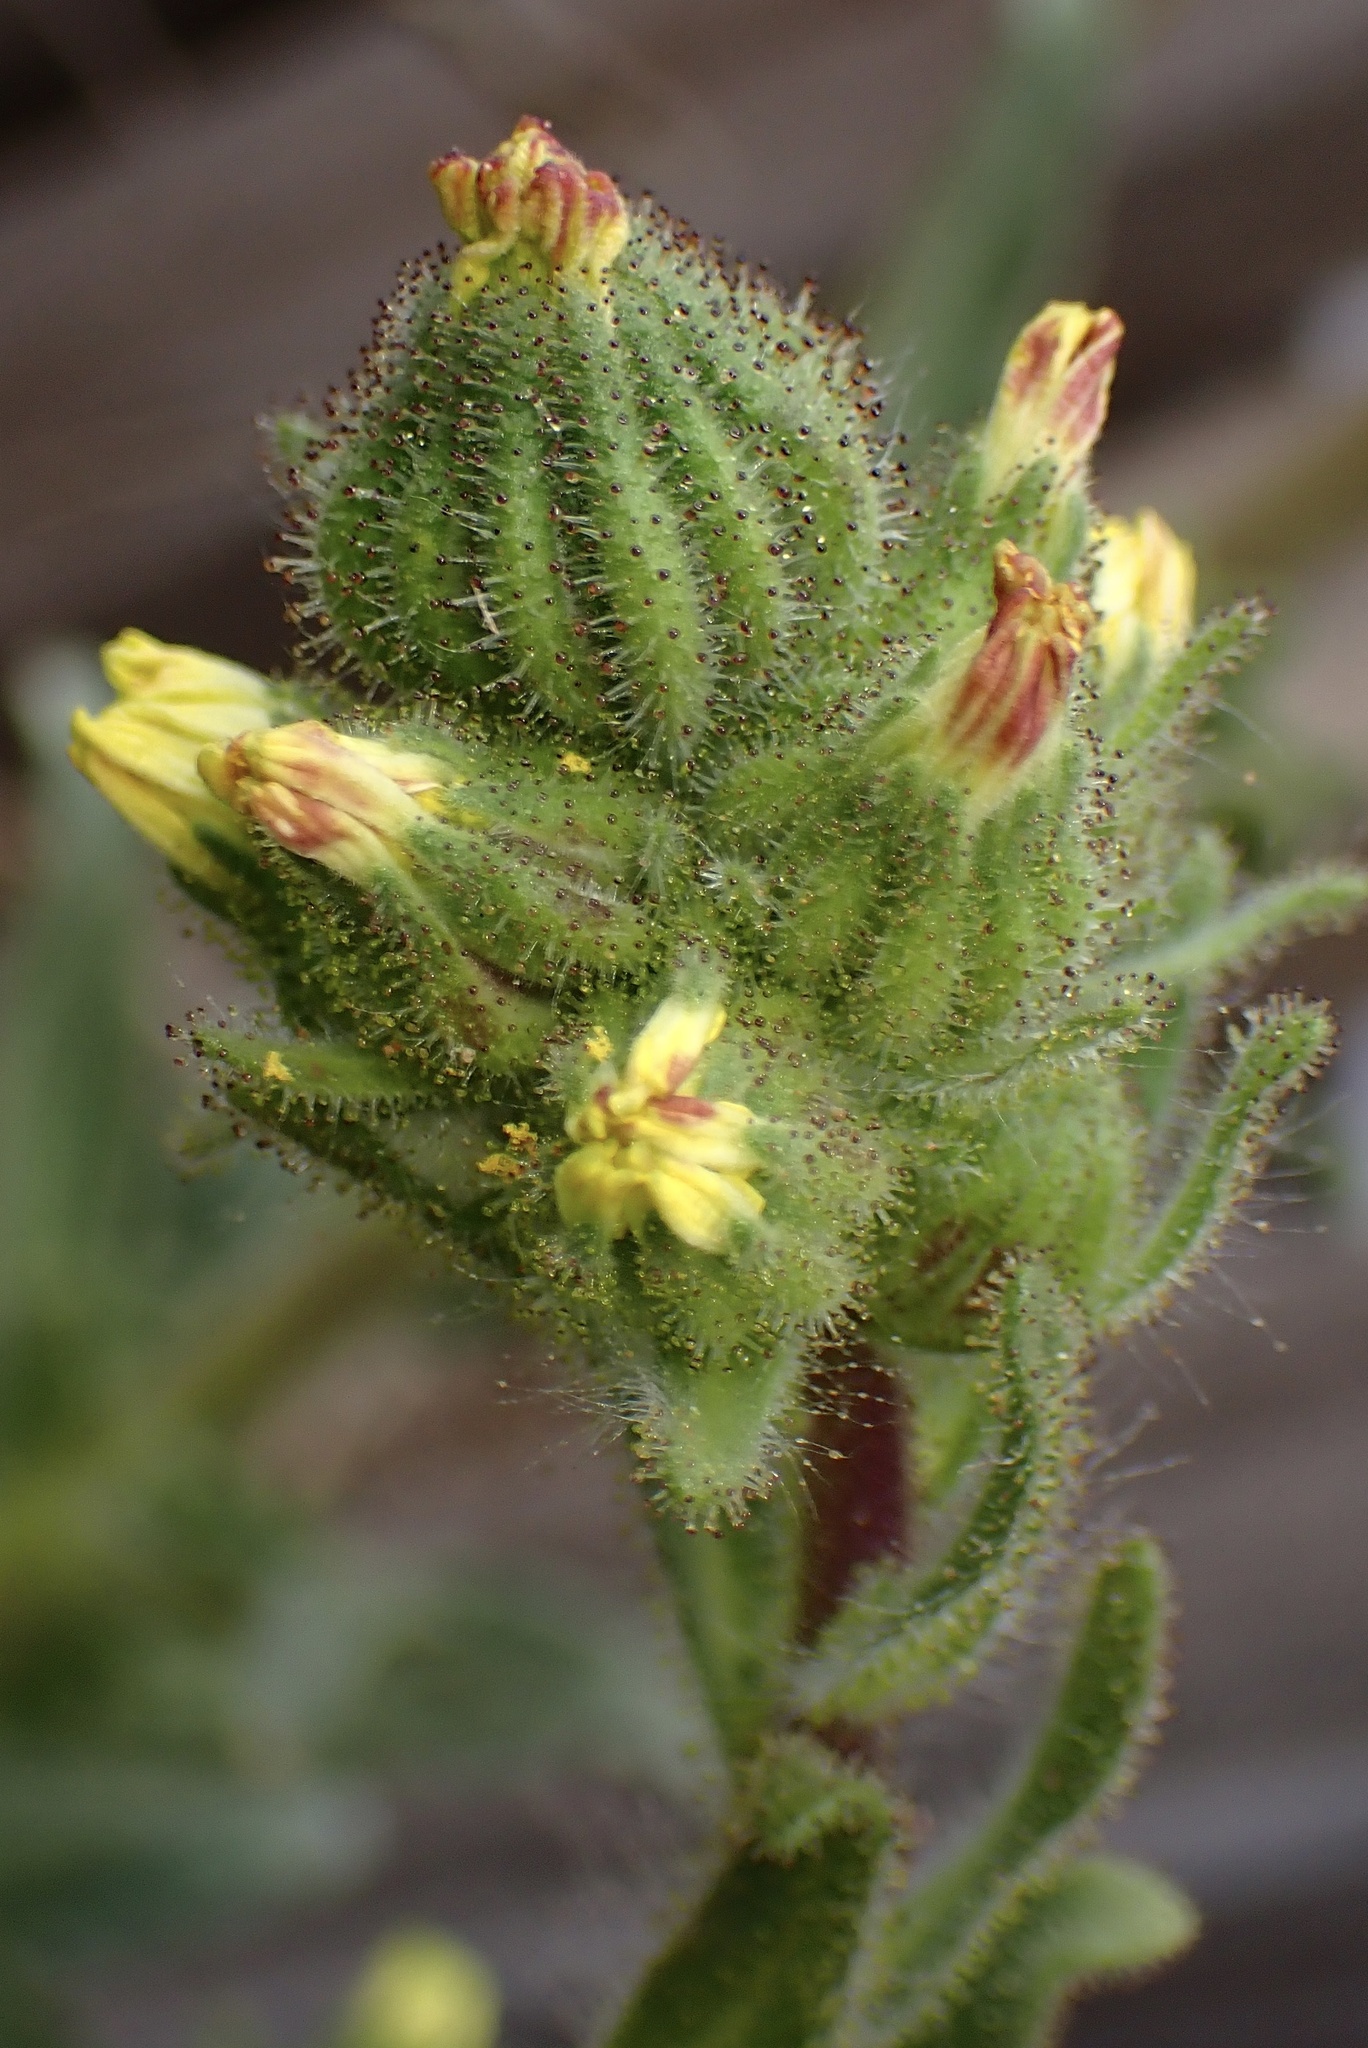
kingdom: Plantae
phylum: Tracheophyta
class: Magnoliopsida
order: Asterales
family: Asteraceae
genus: Madia
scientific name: Madia sativa
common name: Coast tarweed
